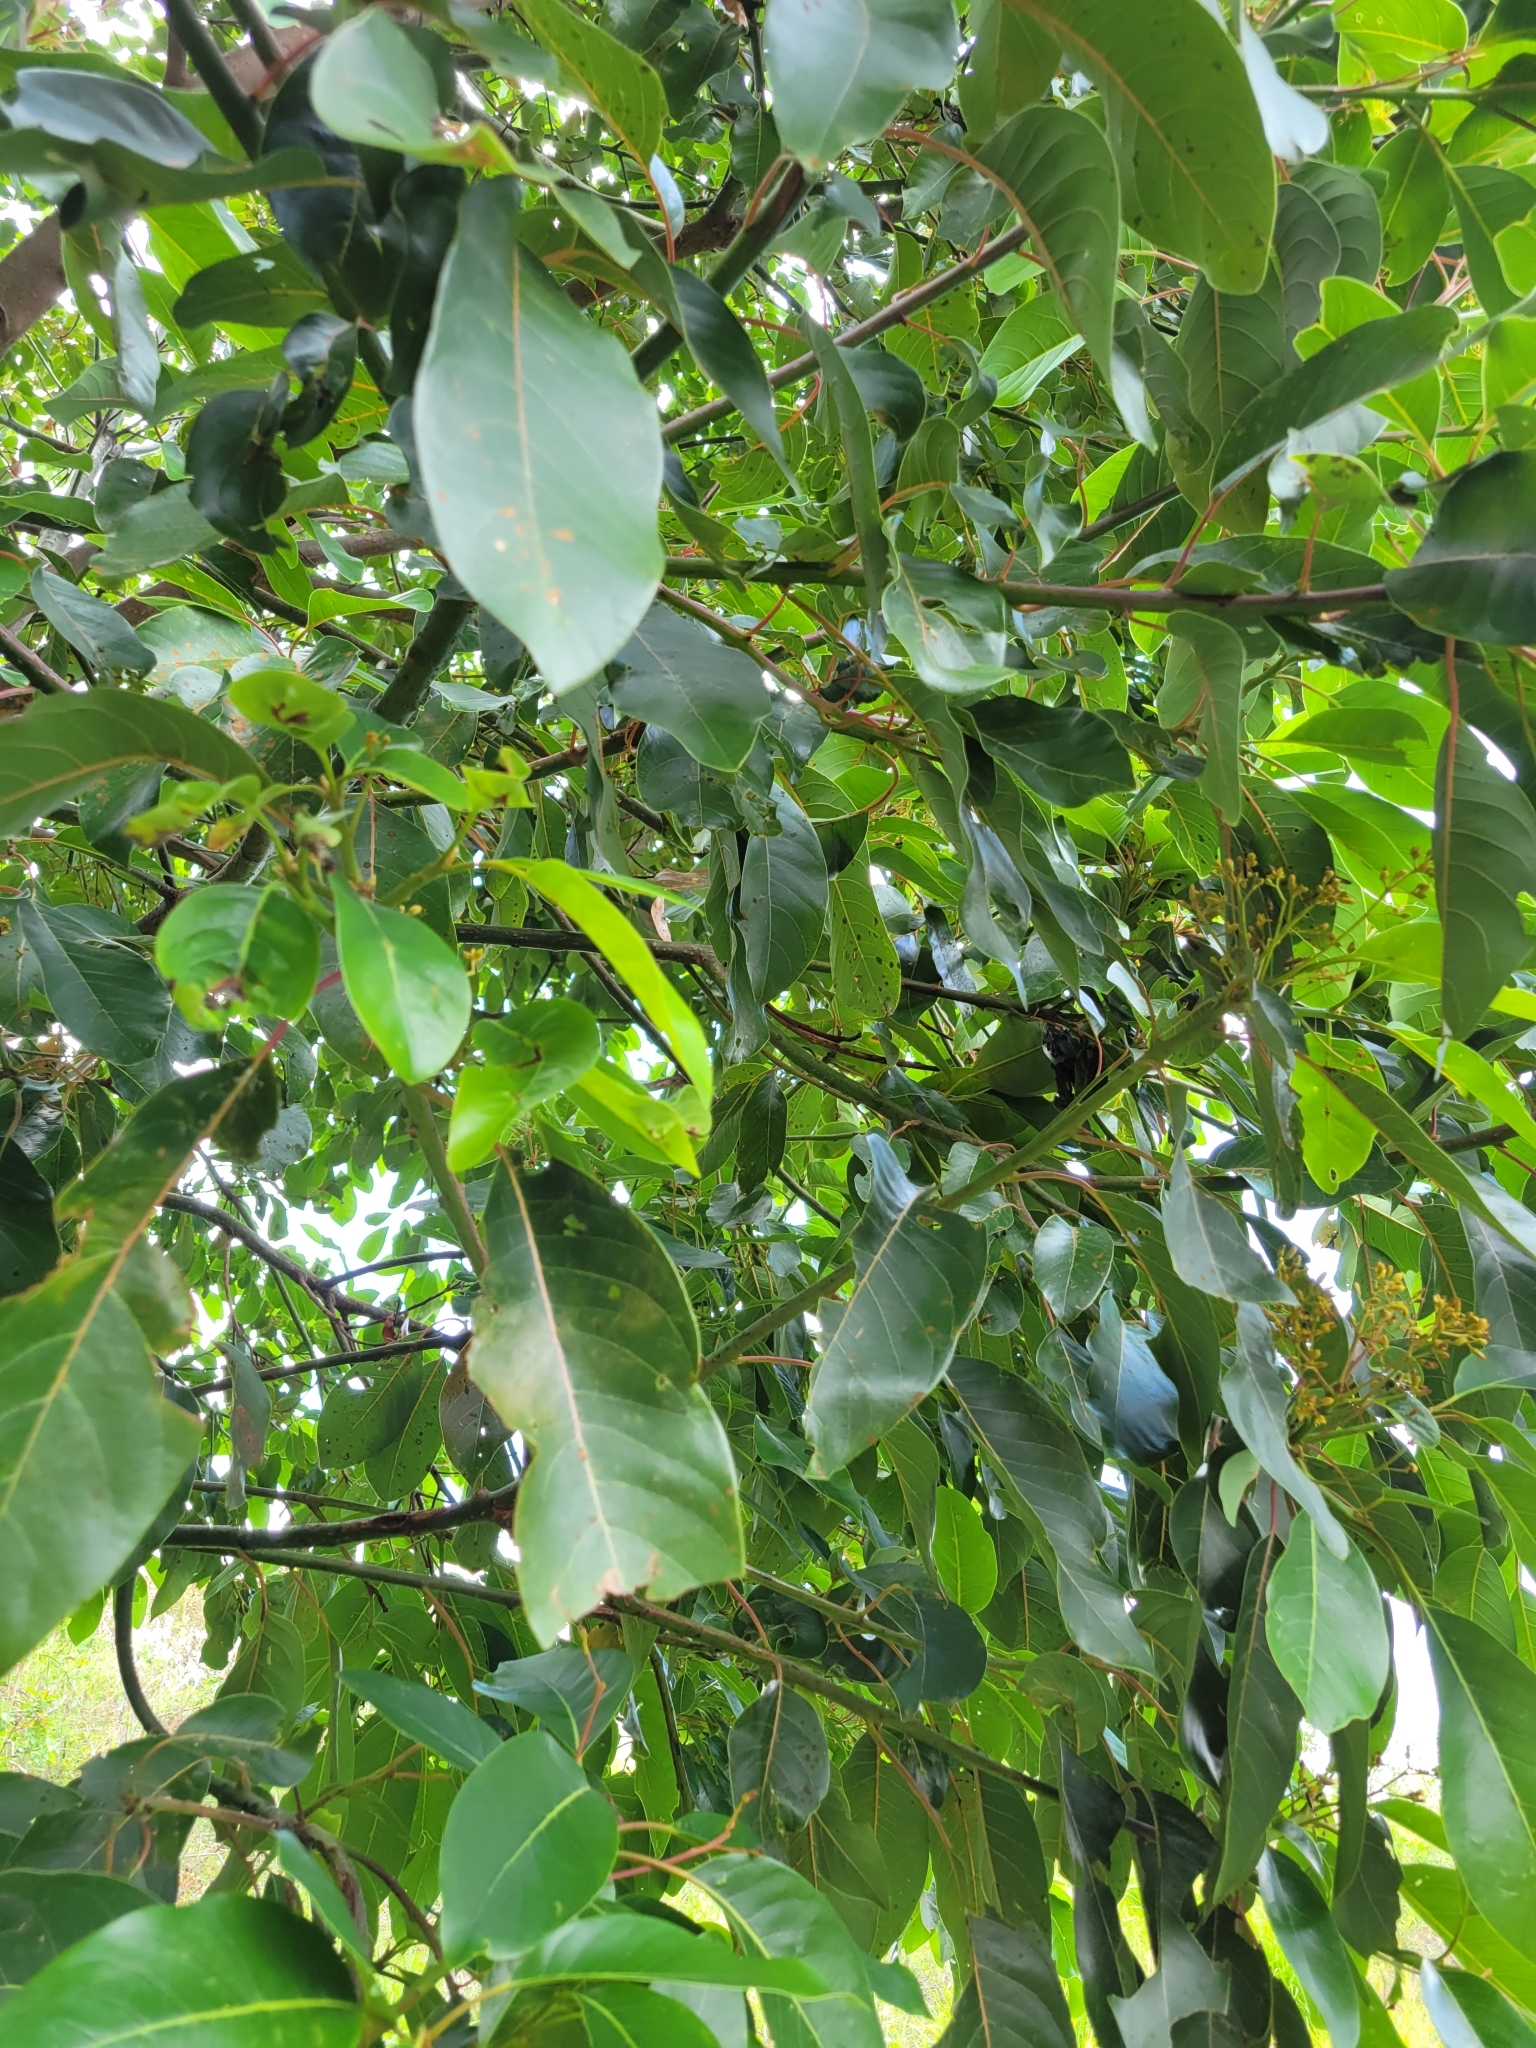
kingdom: Plantae
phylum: Tracheophyta
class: Magnoliopsida
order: Laurales
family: Lauraceae
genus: Persea
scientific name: Persea caerulea
